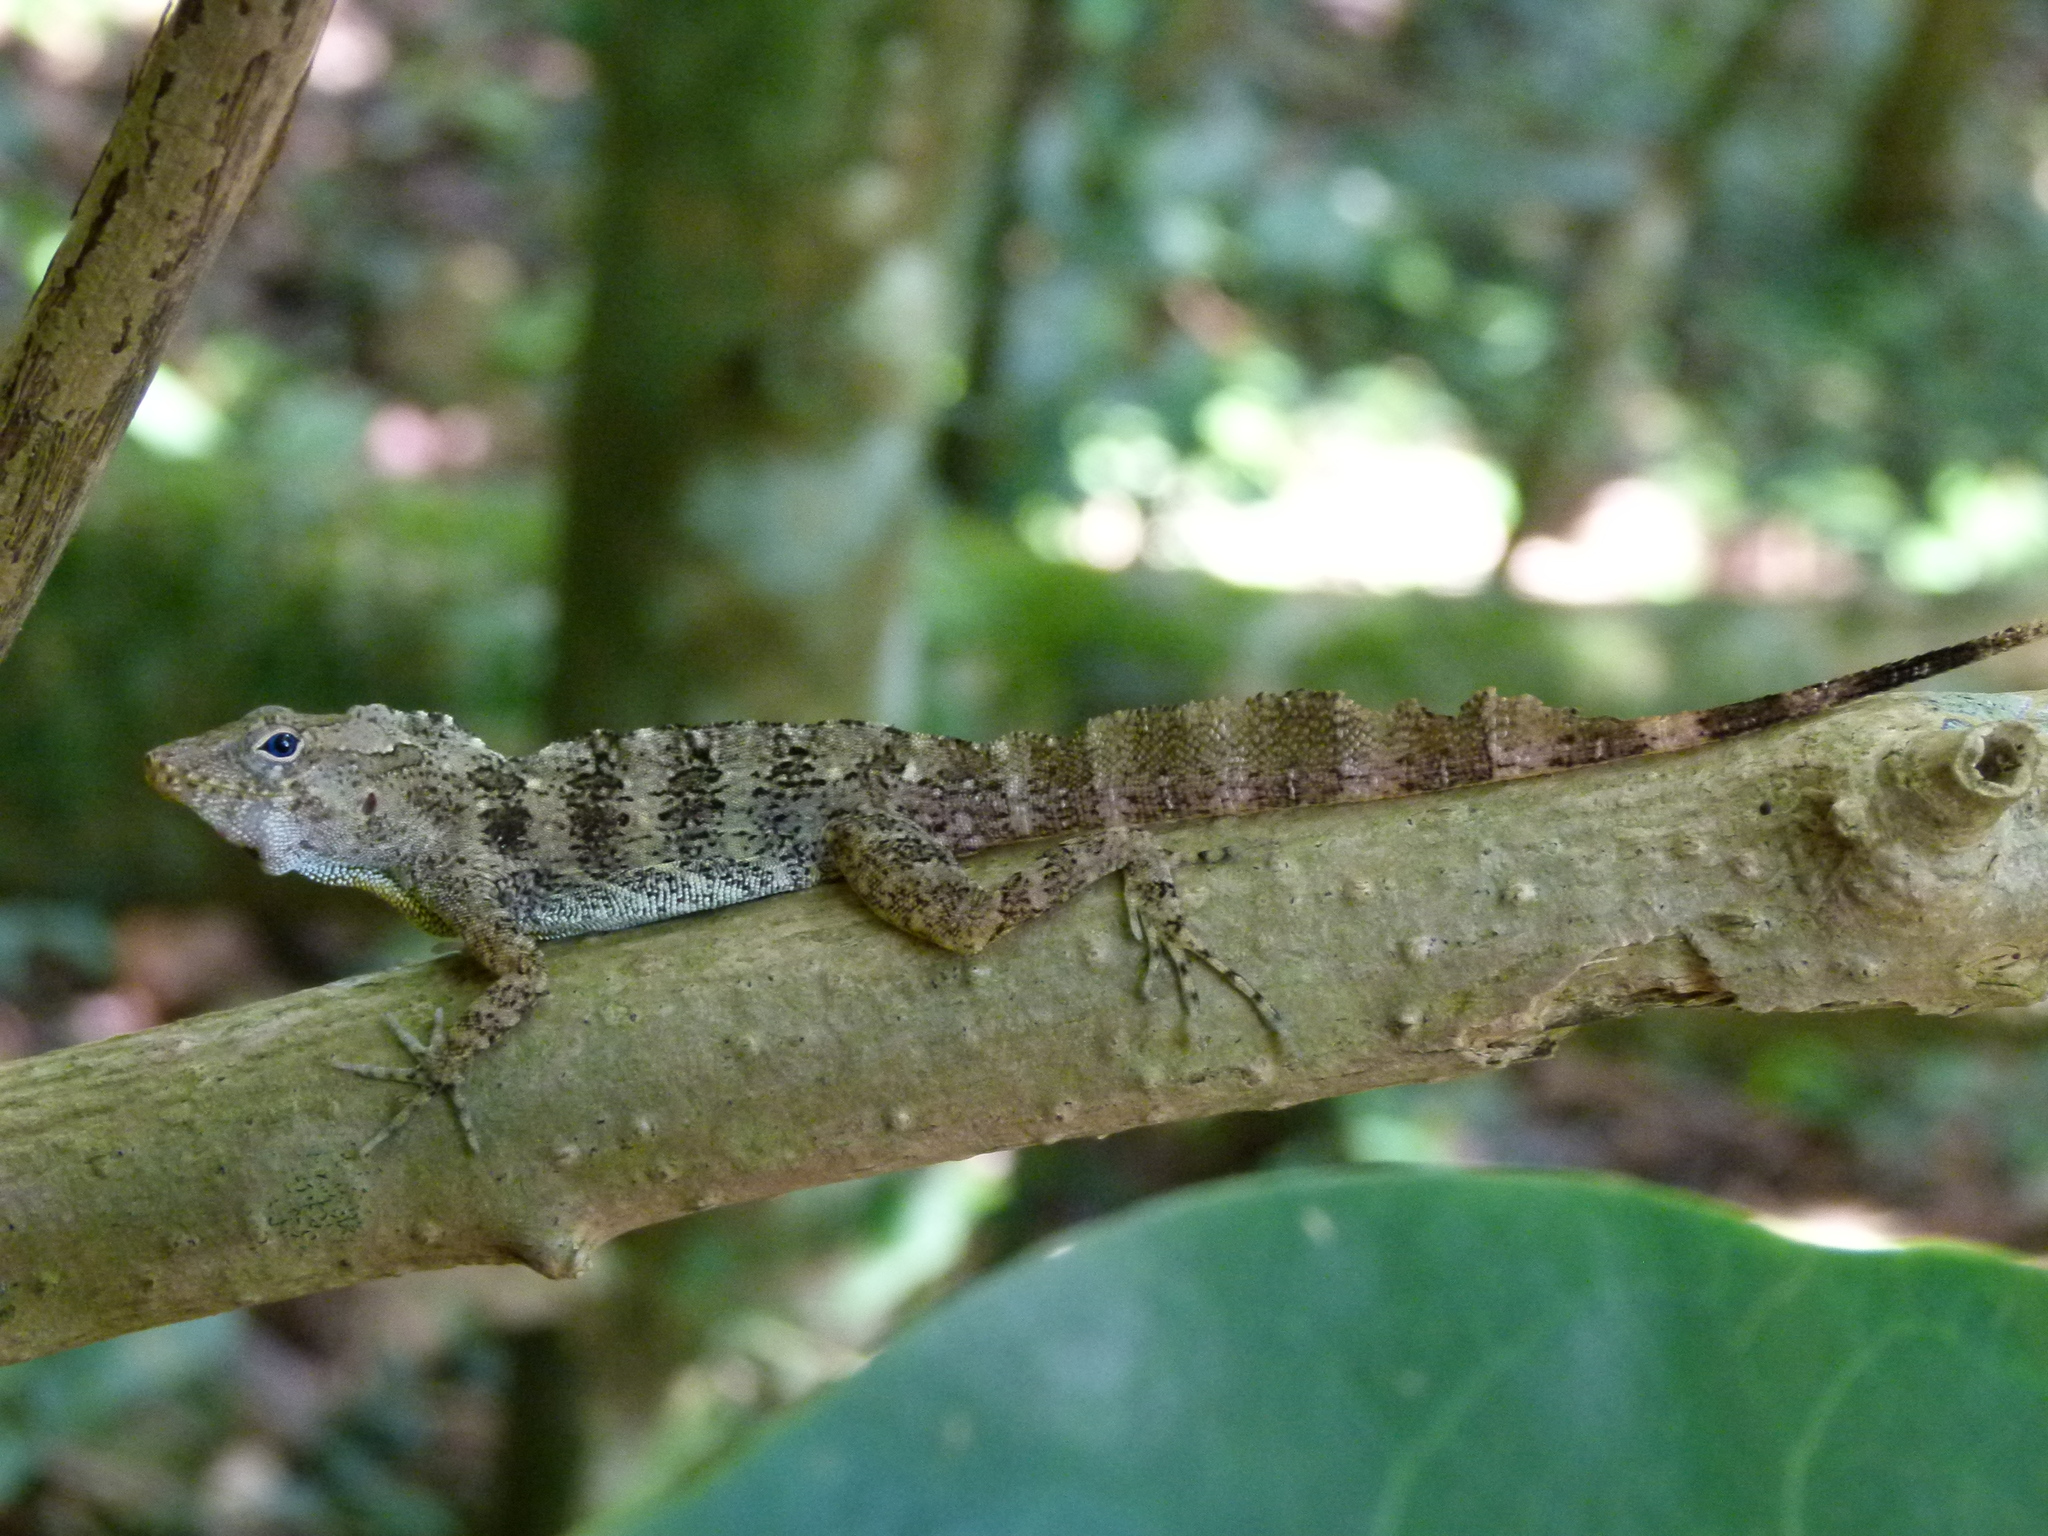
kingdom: Animalia
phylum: Chordata
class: Squamata
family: Dactyloidae
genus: Anolis
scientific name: Anolis gundlachi
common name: Gundlach’s anole
